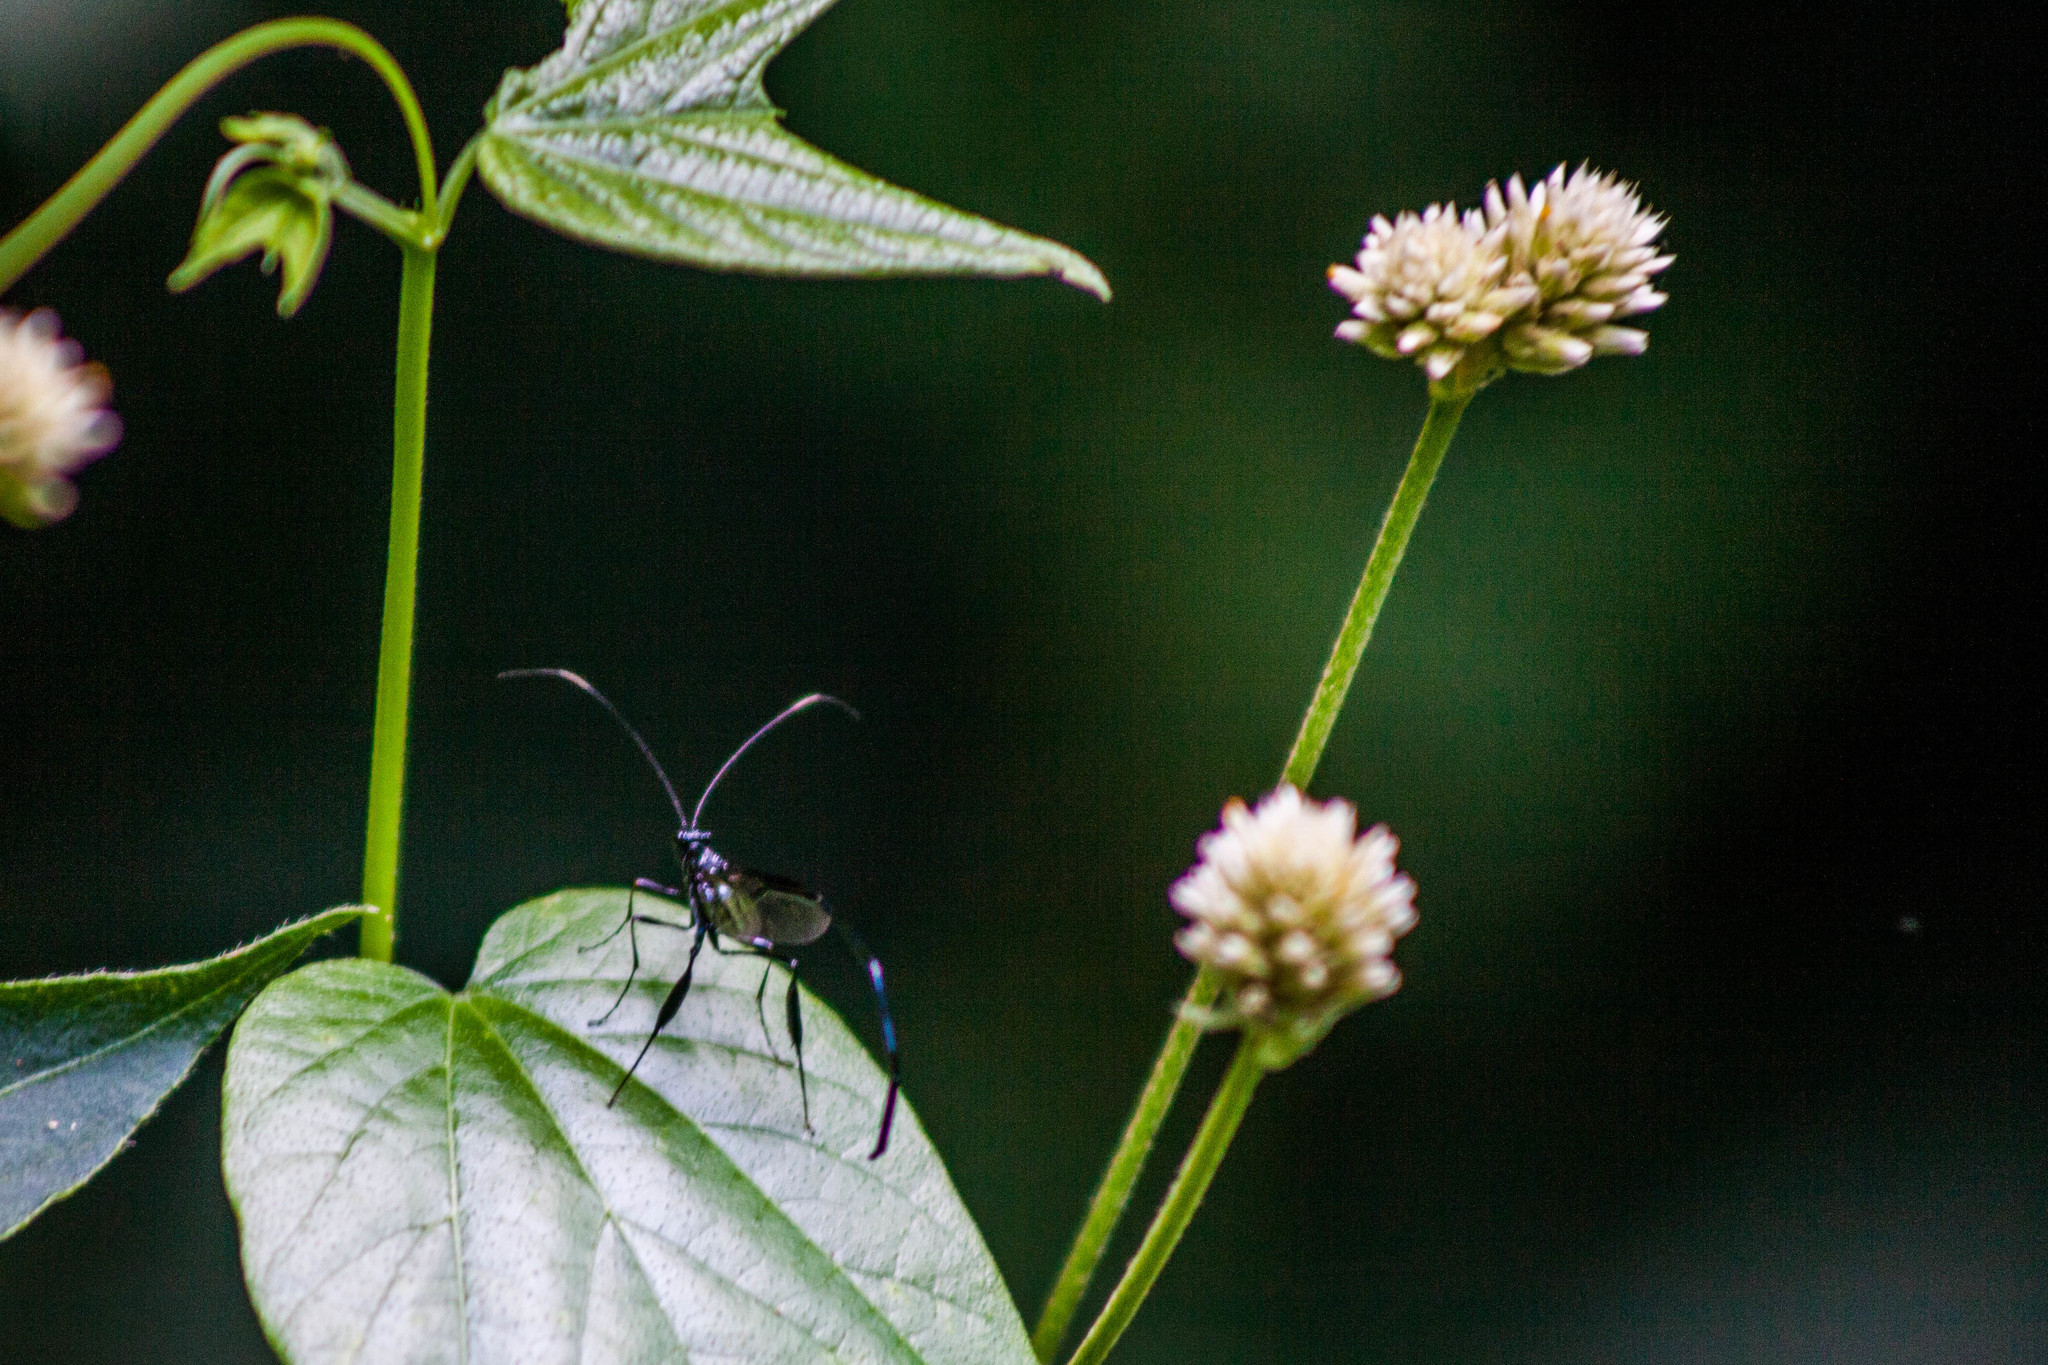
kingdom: Animalia
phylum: Arthropoda
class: Insecta
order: Hymenoptera
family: Pelecinidae
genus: Pelecinus
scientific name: Pelecinus polyturator
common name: American pelecinid wasp
